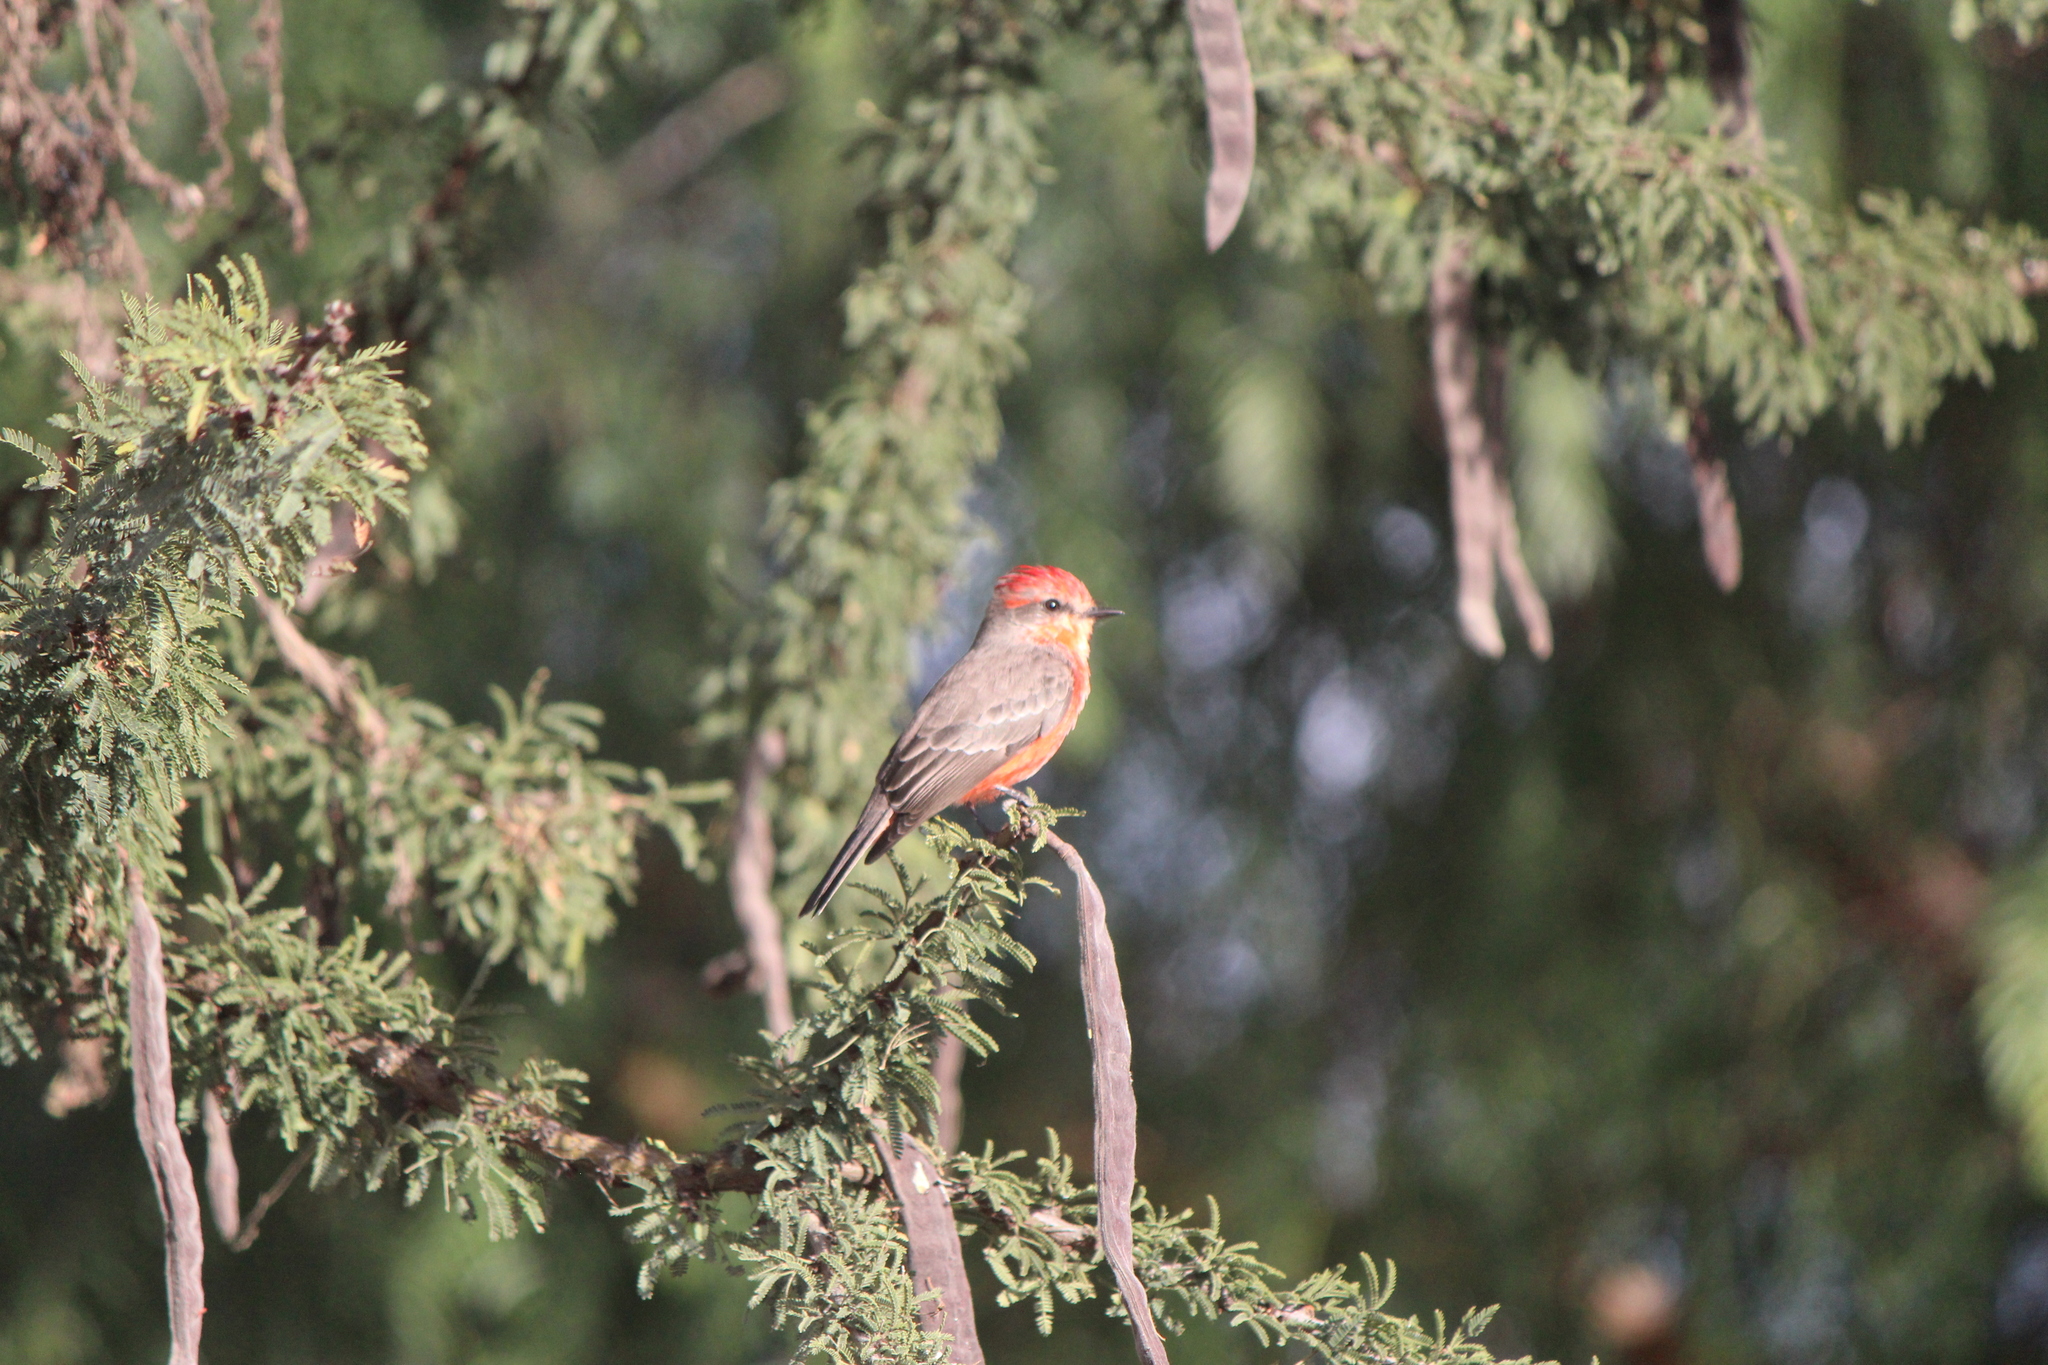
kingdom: Animalia
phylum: Chordata
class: Aves
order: Passeriformes
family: Tyrannidae
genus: Pyrocephalus
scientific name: Pyrocephalus rubinus
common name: Vermilion flycatcher
